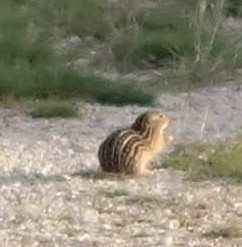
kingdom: Animalia
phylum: Chordata
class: Mammalia
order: Rodentia
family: Sciuridae
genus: Ictidomys
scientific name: Ictidomys tridecemlineatus
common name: Thirteen-lined ground squirrel
